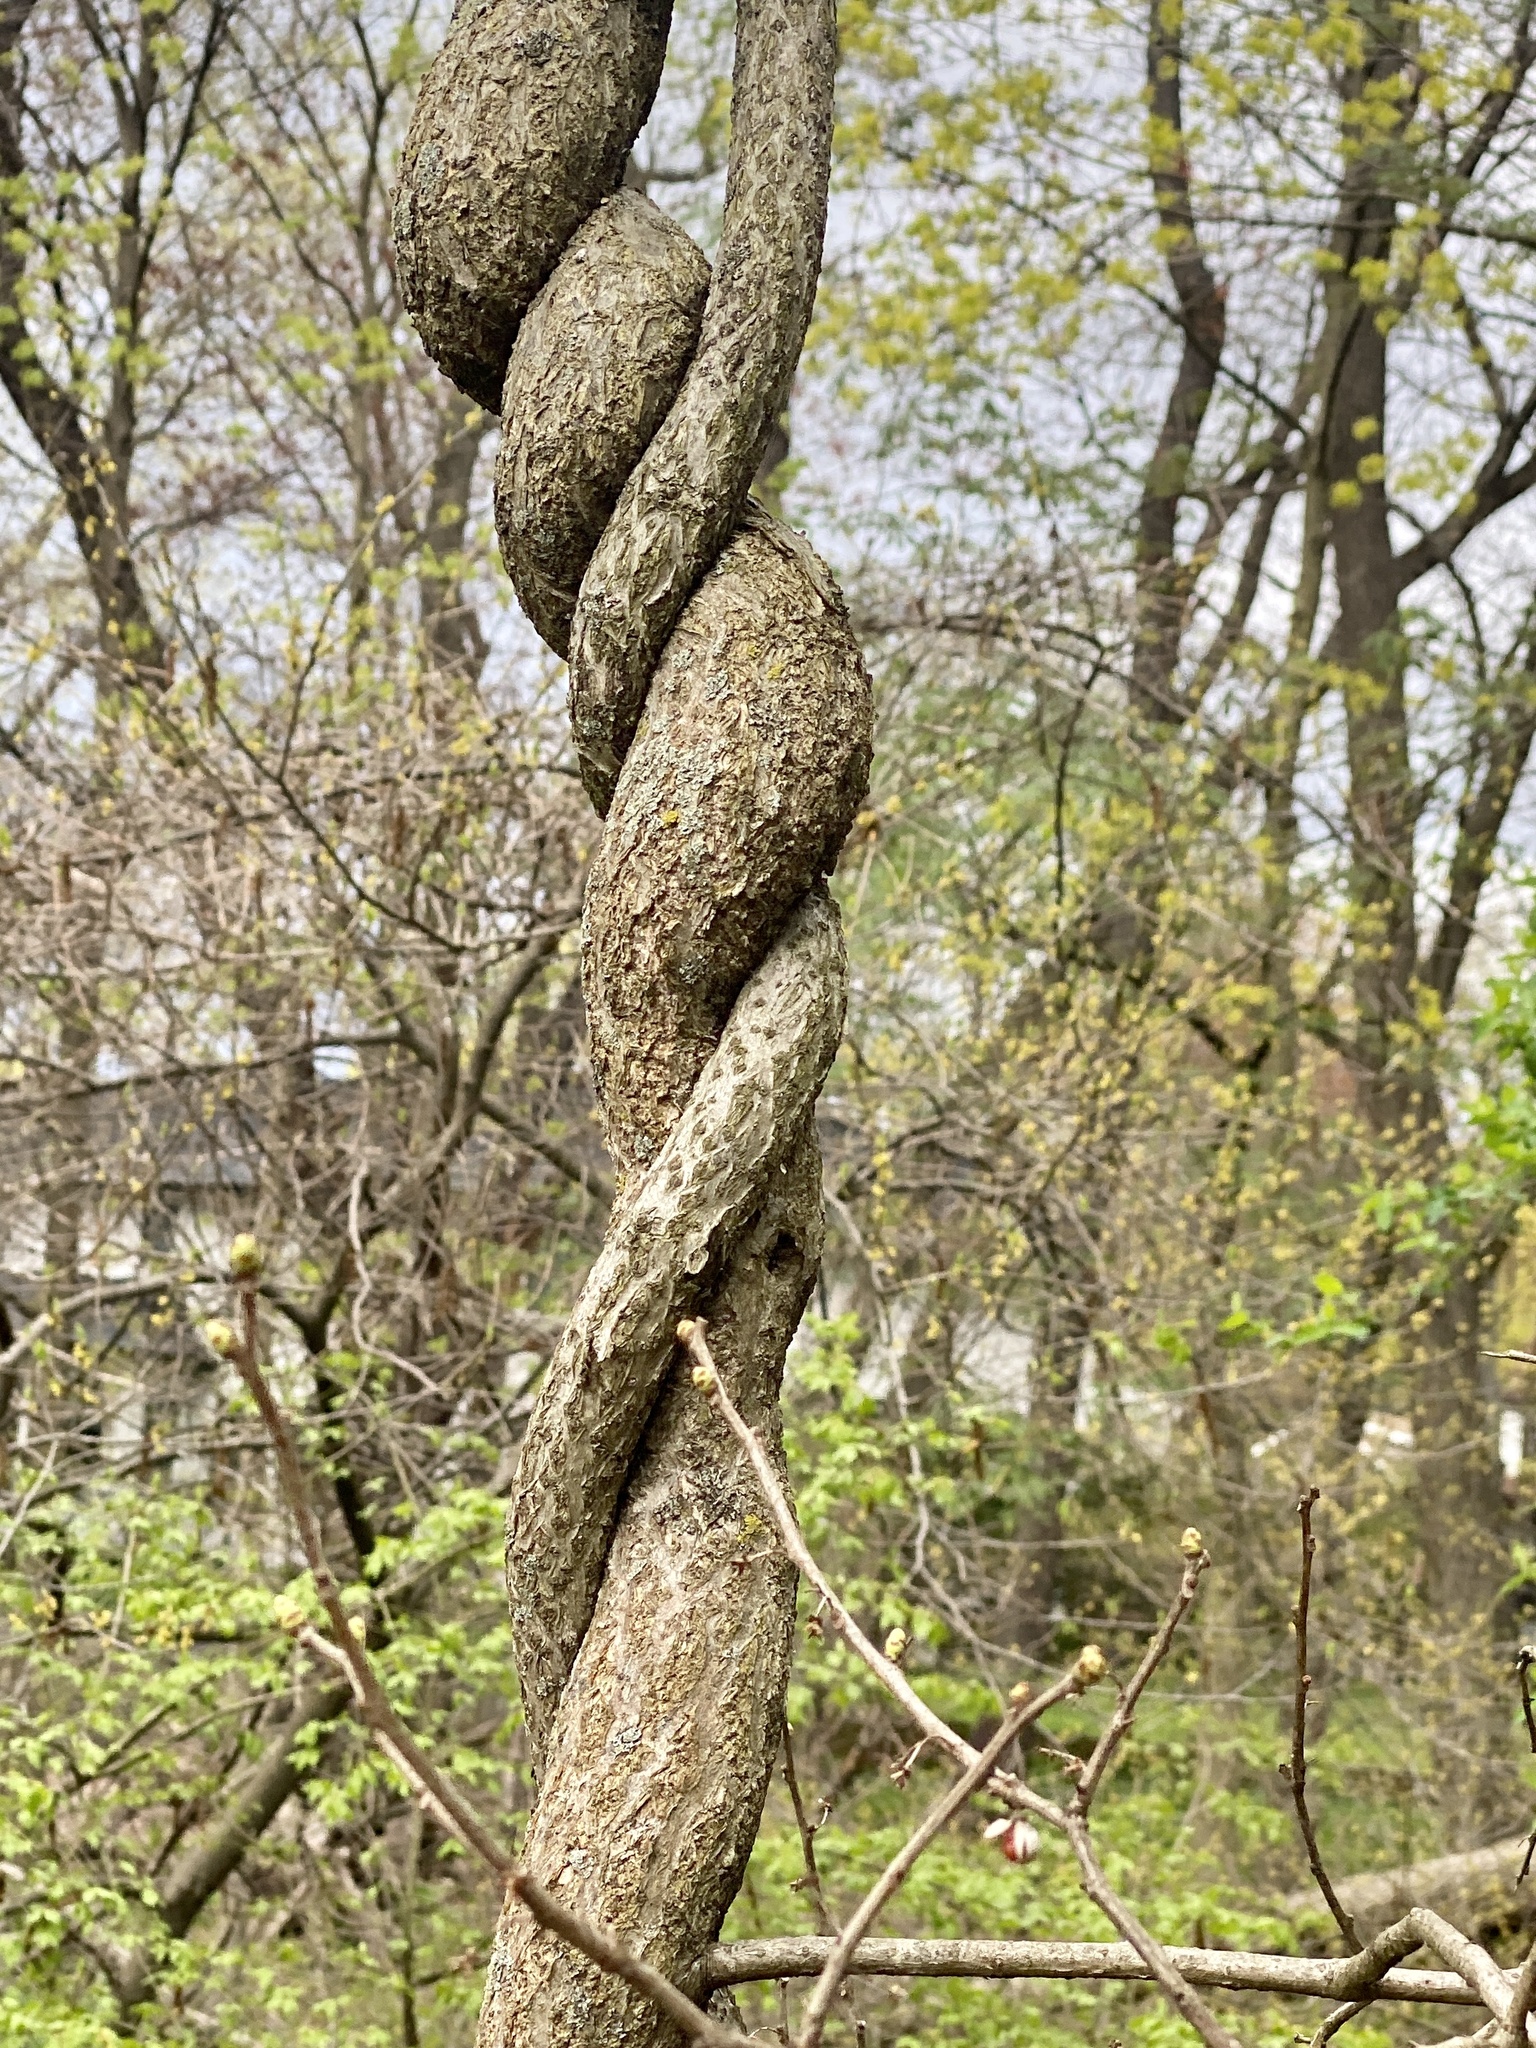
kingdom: Plantae
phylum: Tracheophyta
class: Magnoliopsida
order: Celastrales
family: Celastraceae
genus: Celastrus
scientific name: Celastrus orbiculatus
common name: Oriental bittersweet
